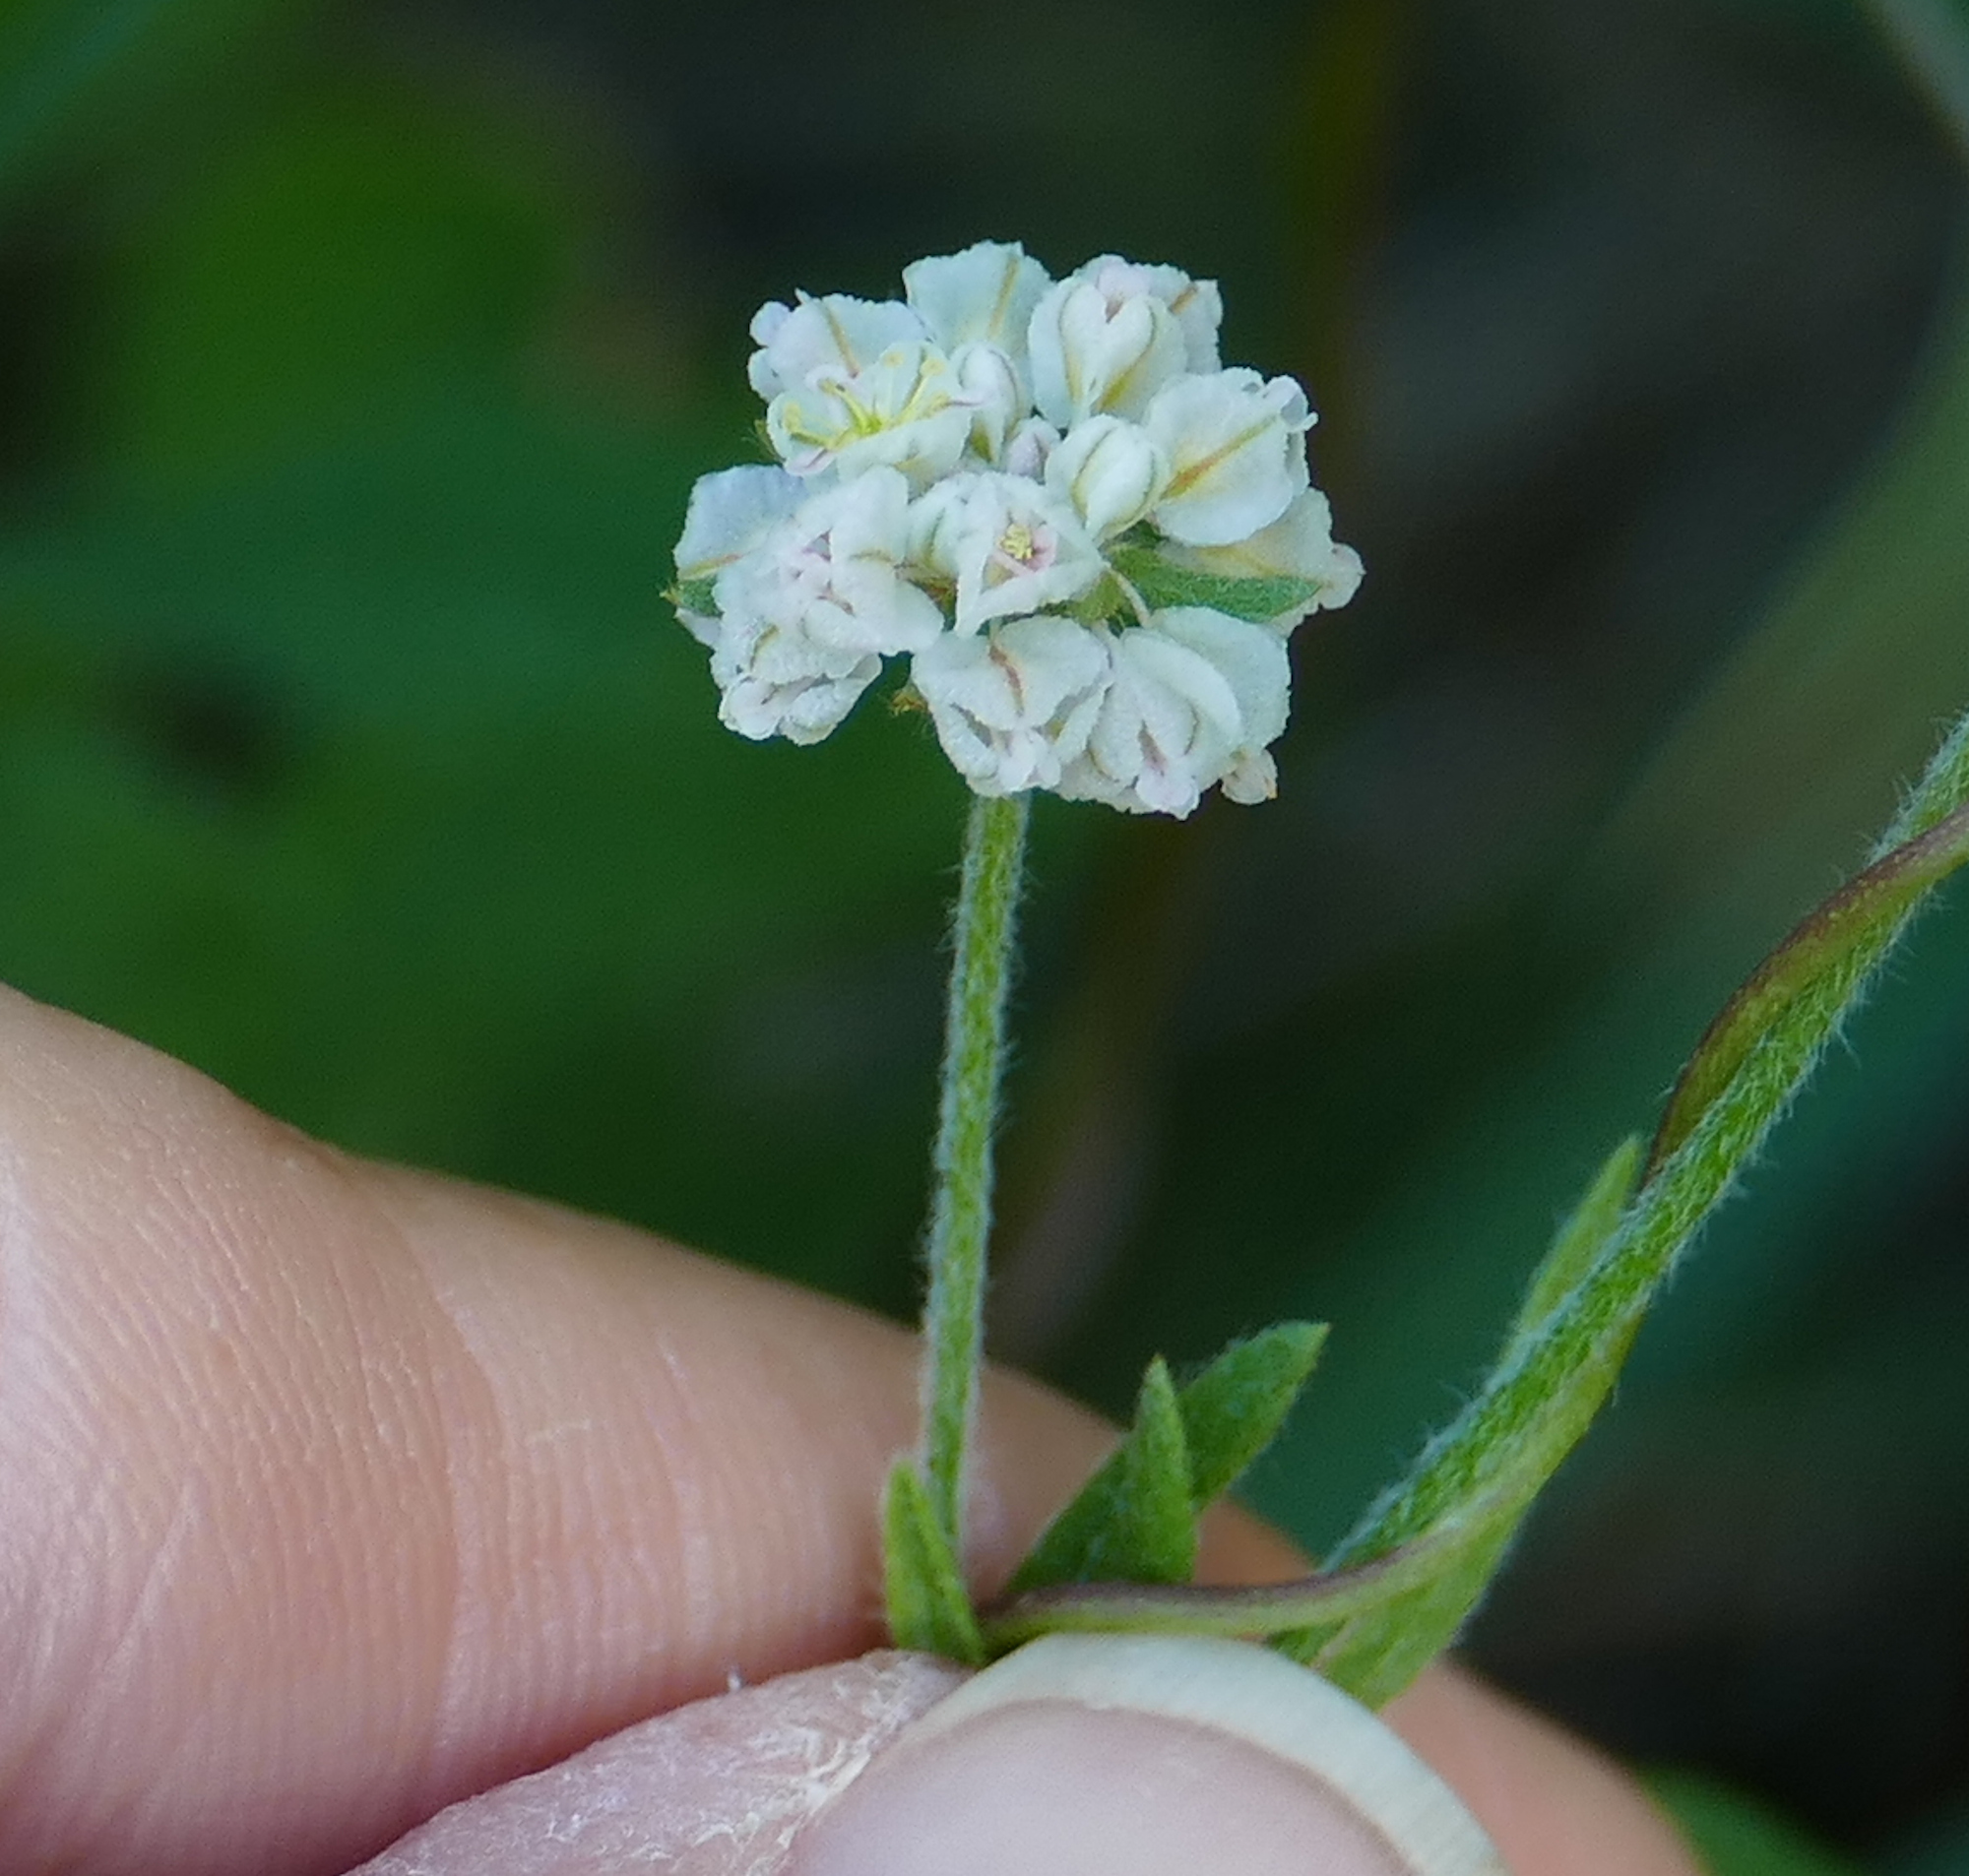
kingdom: Plantae
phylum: Tracheophyta
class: Magnoliopsida
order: Caryophyllales
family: Polygonaceae
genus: Eriogonum
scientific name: Eriogonum abertianum
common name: Abert's wild buckwheat
